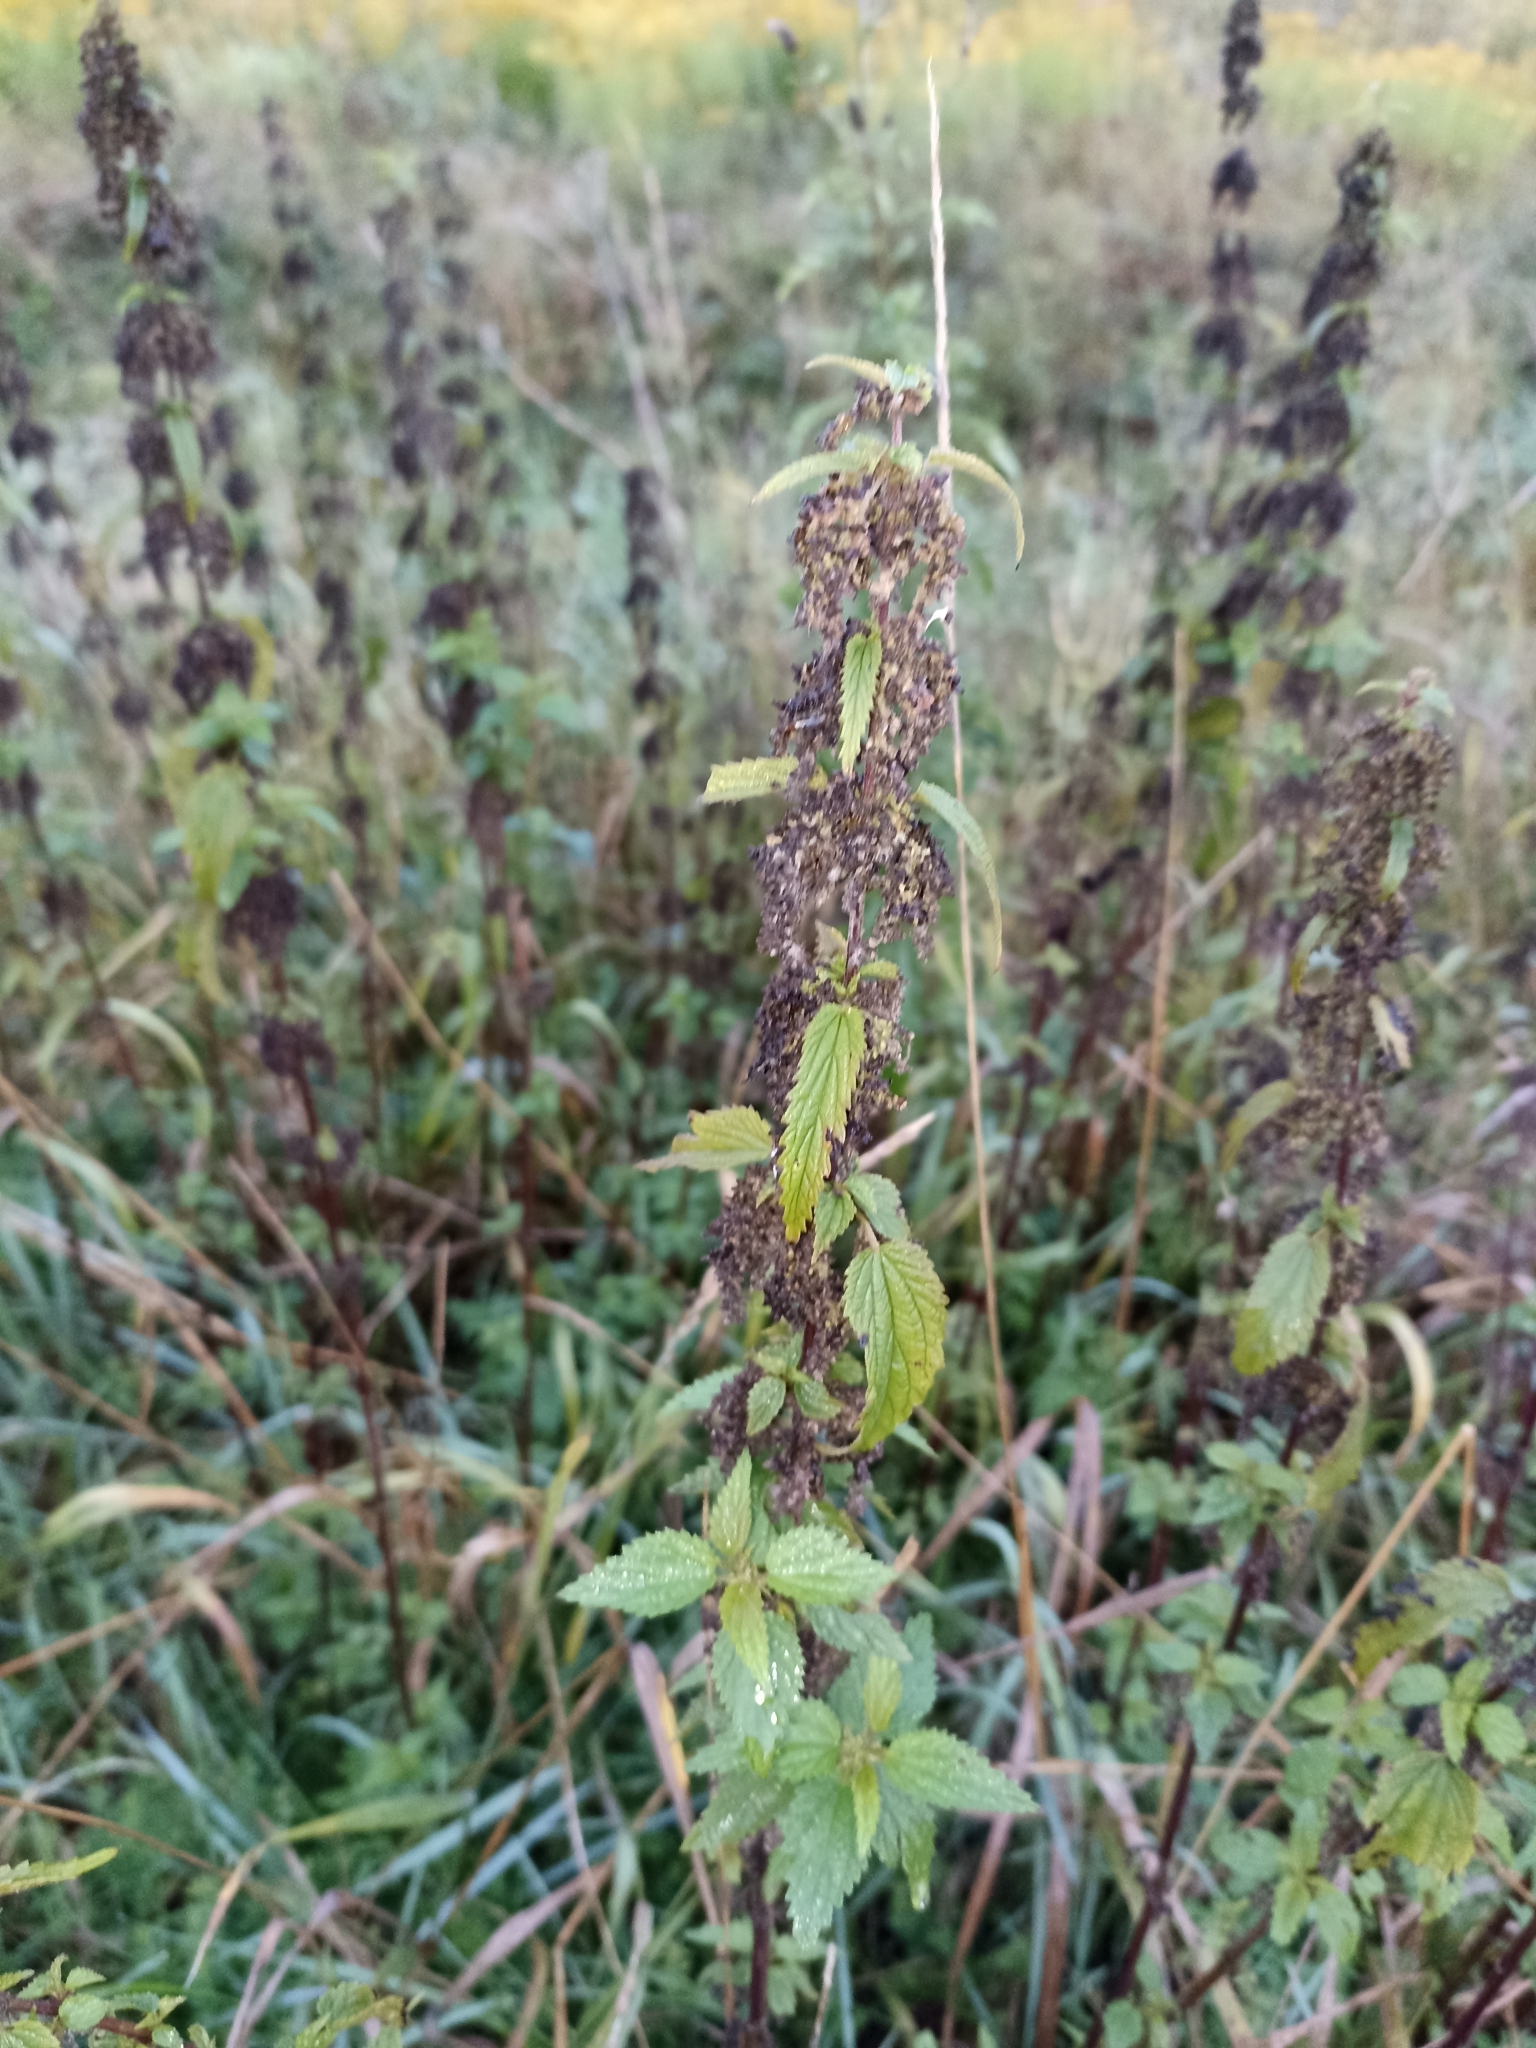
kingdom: Plantae
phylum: Tracheophyta
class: Magnoliopsida
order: Rosales
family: Urticaceae
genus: Urtica
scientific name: Urtica dioica
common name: Common nettle
